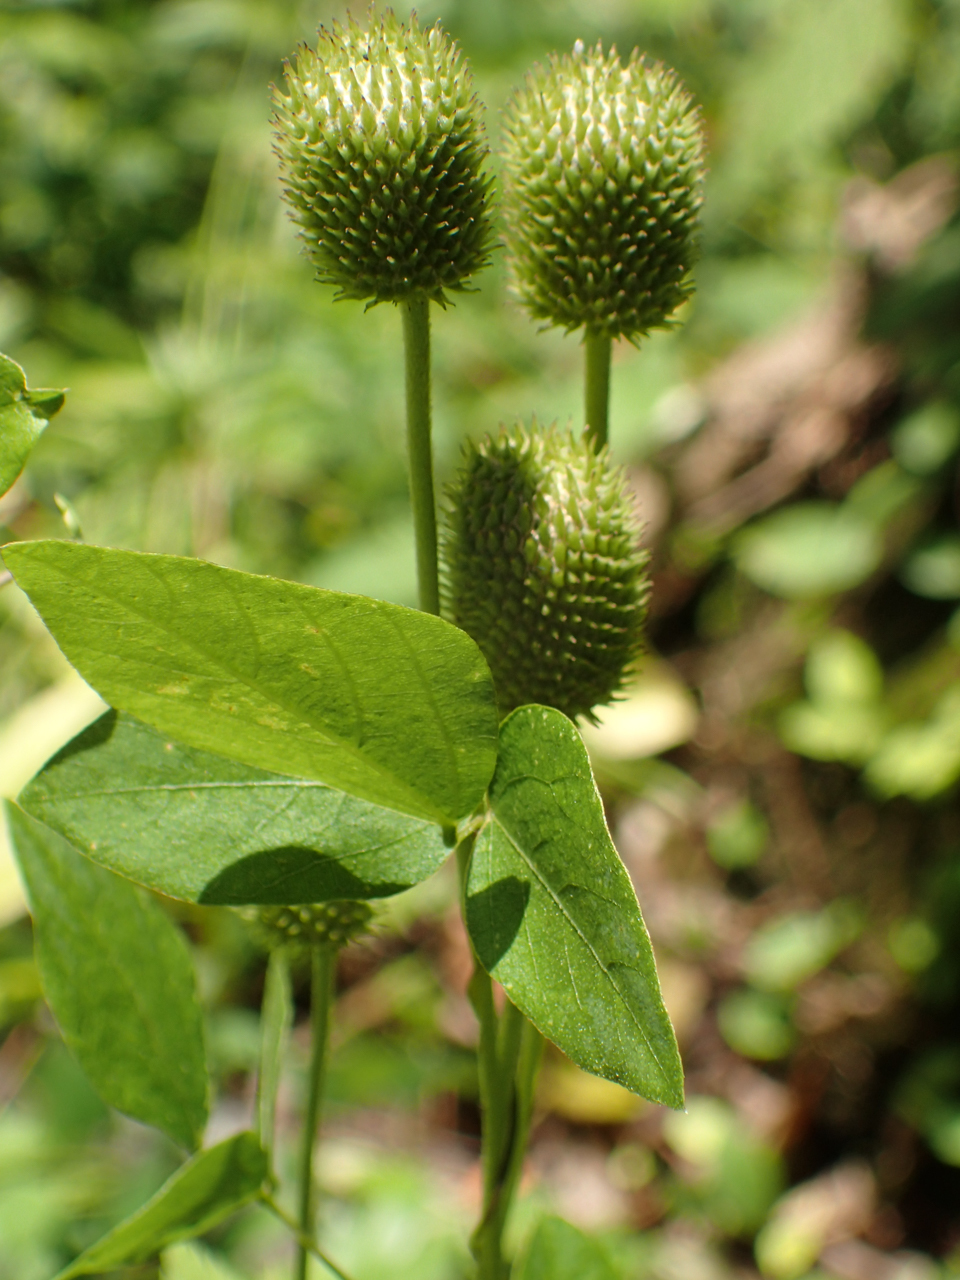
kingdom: Plantae
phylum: Tracheophyta
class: Magnoliopsida
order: Ranunculales
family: Ranunculaceae
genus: Anemone
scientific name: Anemone virginiana
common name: Tall anemone
